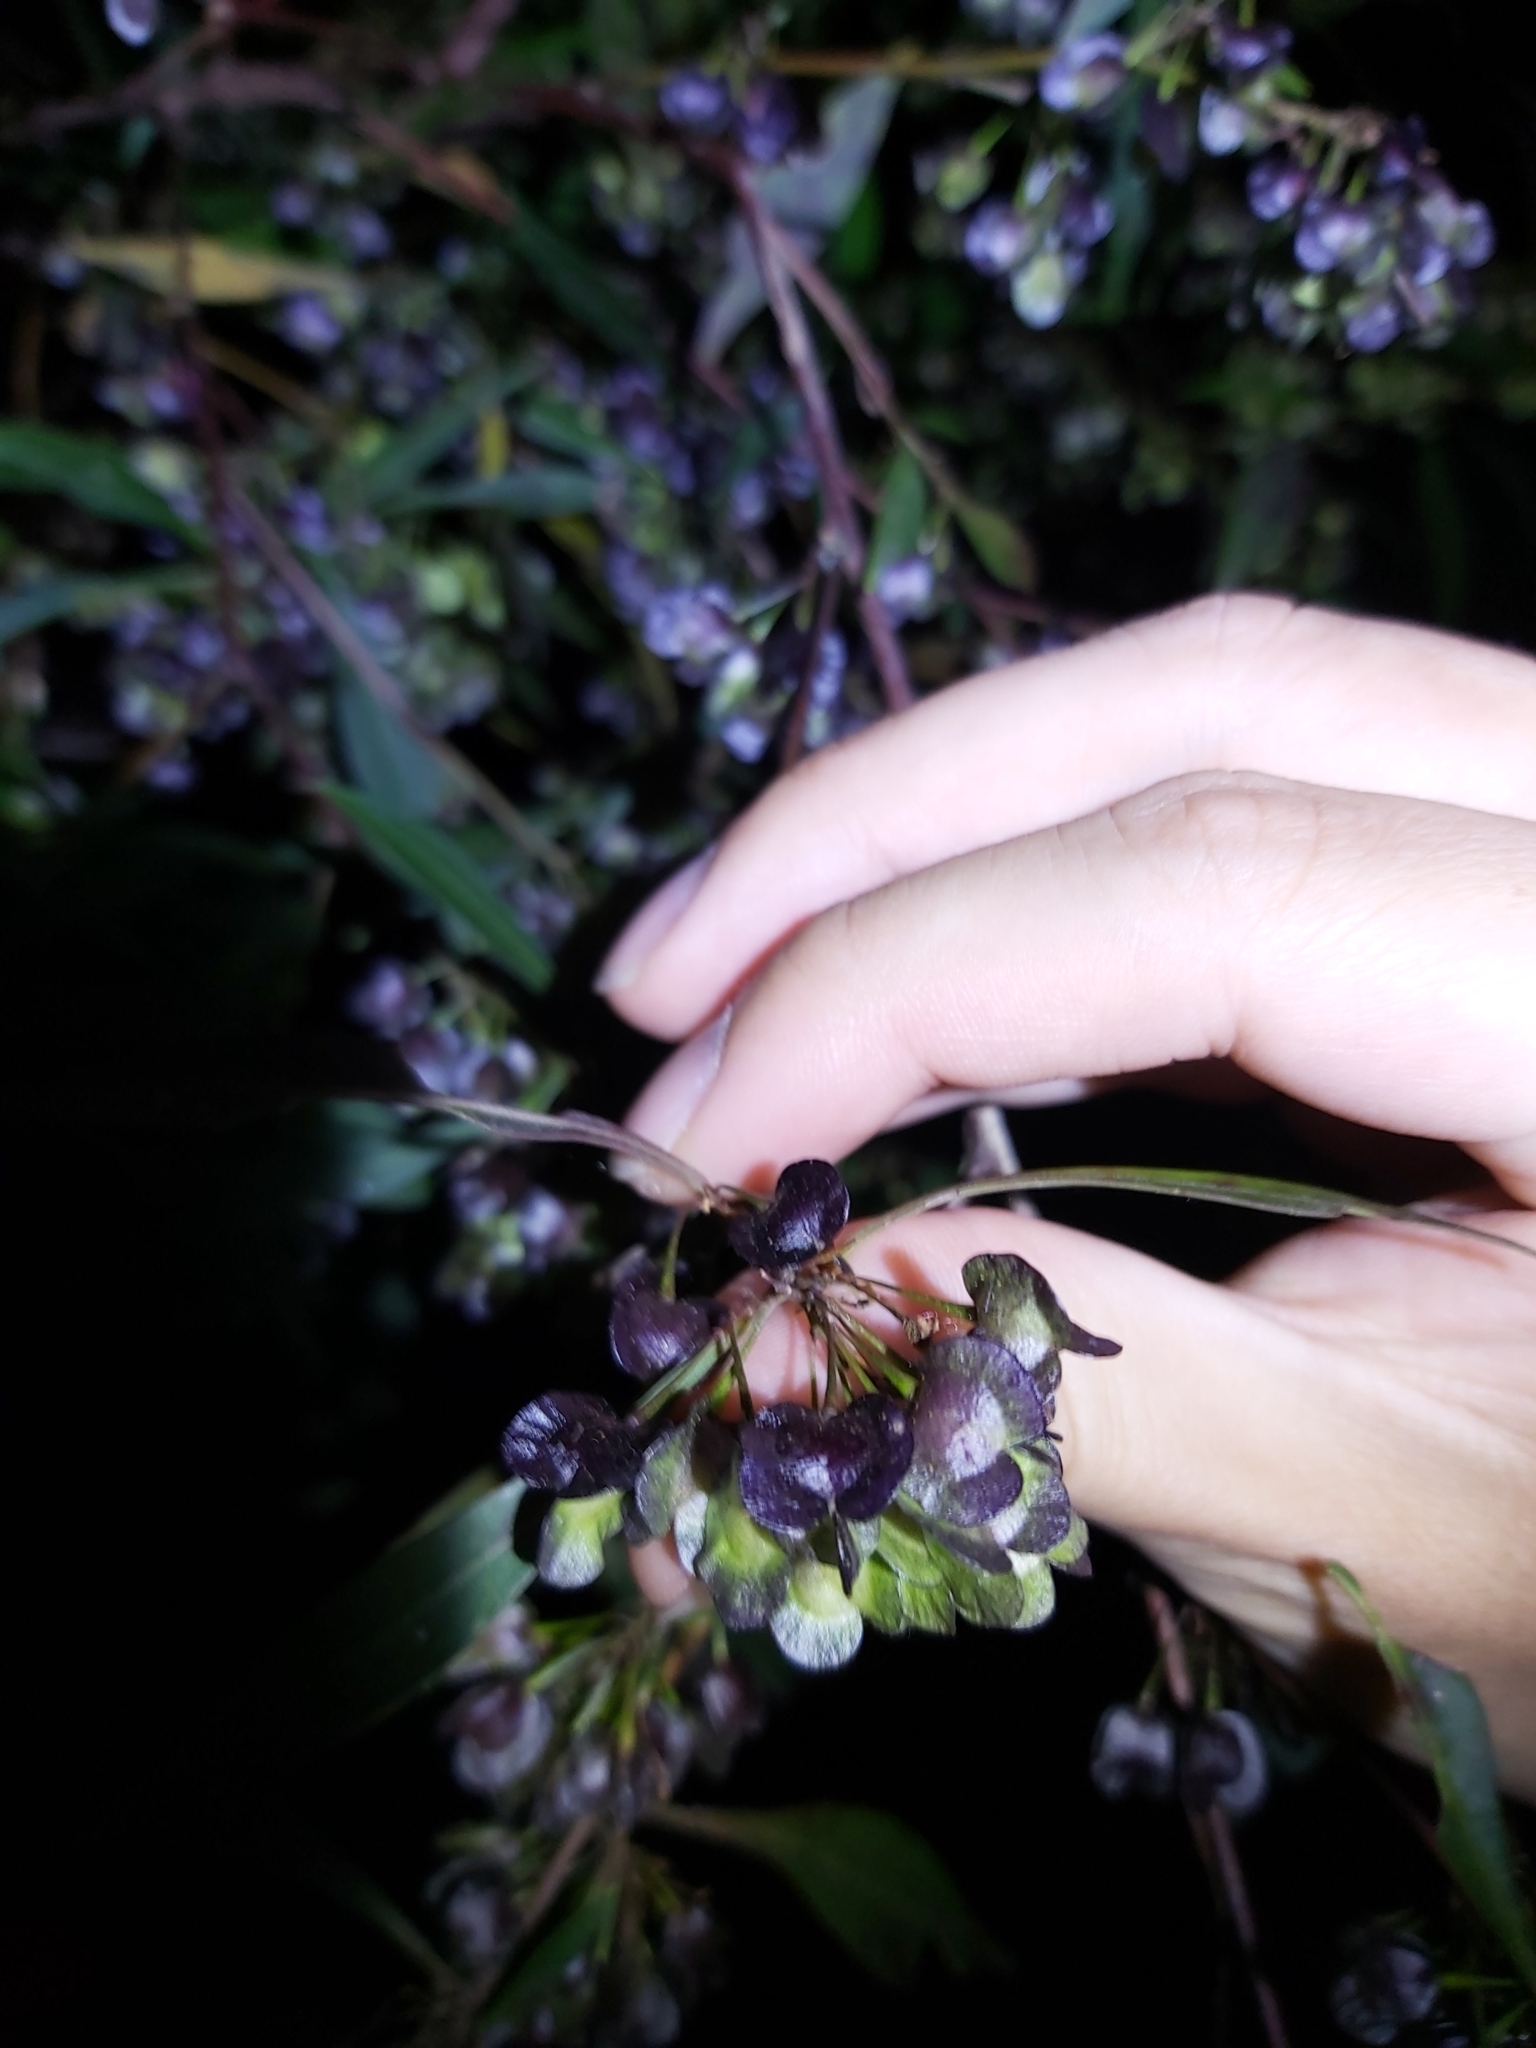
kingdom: Plantae
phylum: Tracheophyta
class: Magnoliopsida
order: Sapindales
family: Sapindaceae
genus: Dodonaea
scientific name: Dodonaea triquetra
